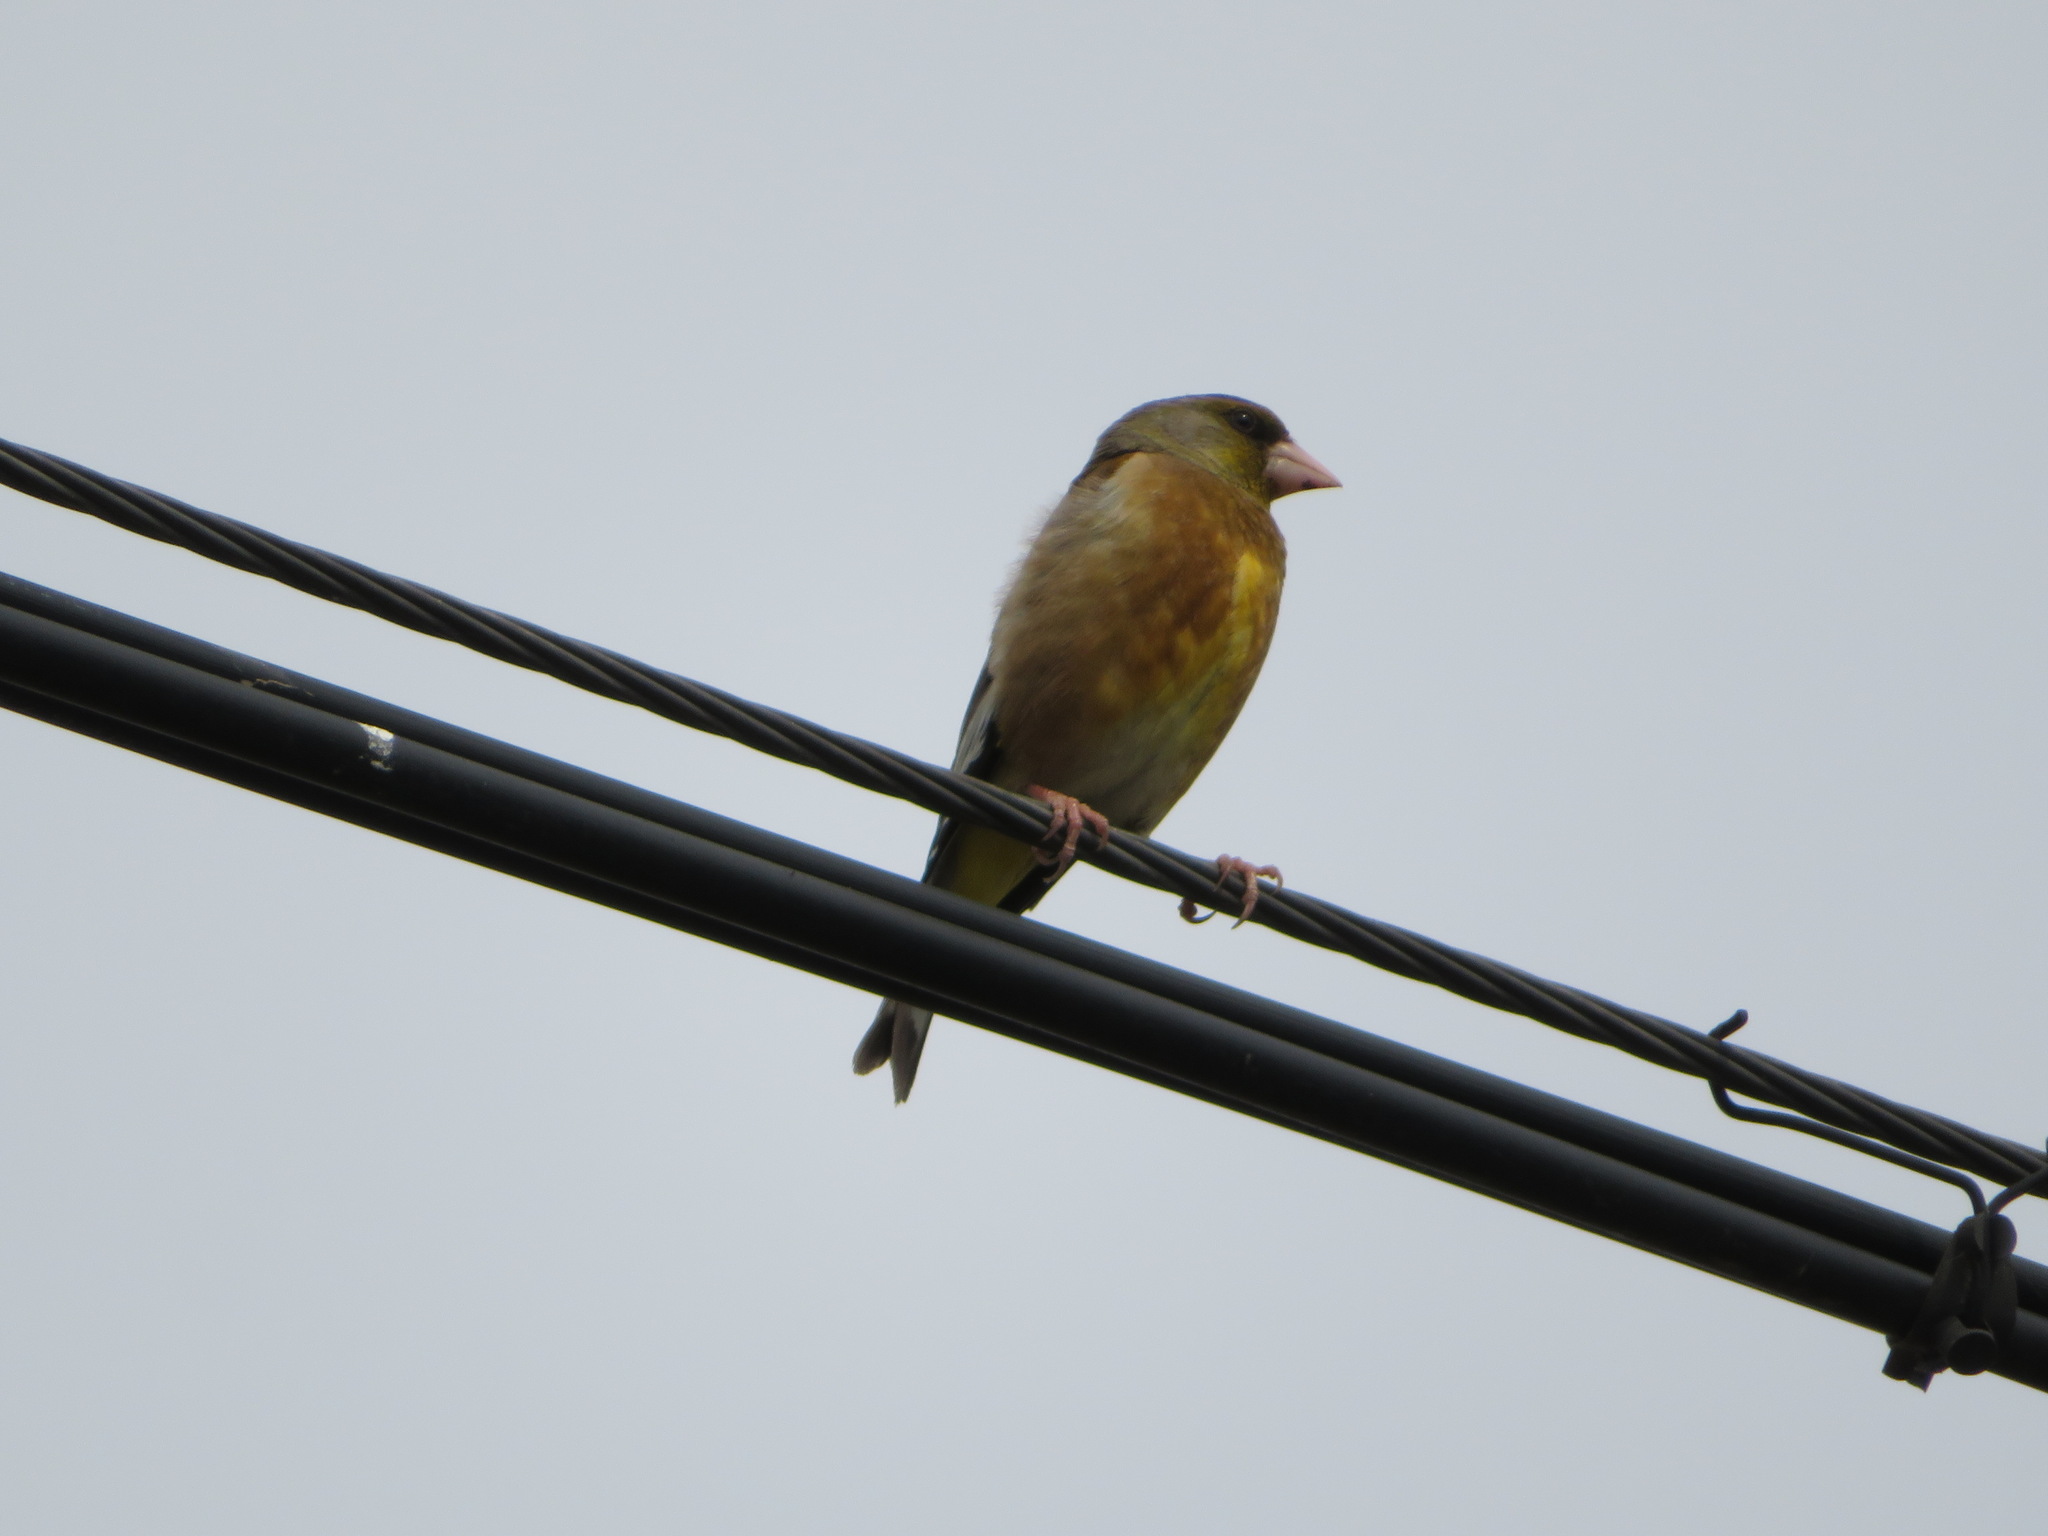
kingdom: Plantae
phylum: Tracheophyta
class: Liliopsida
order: Poales
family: Poaceae
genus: Chloris
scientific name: Chloris sinica
